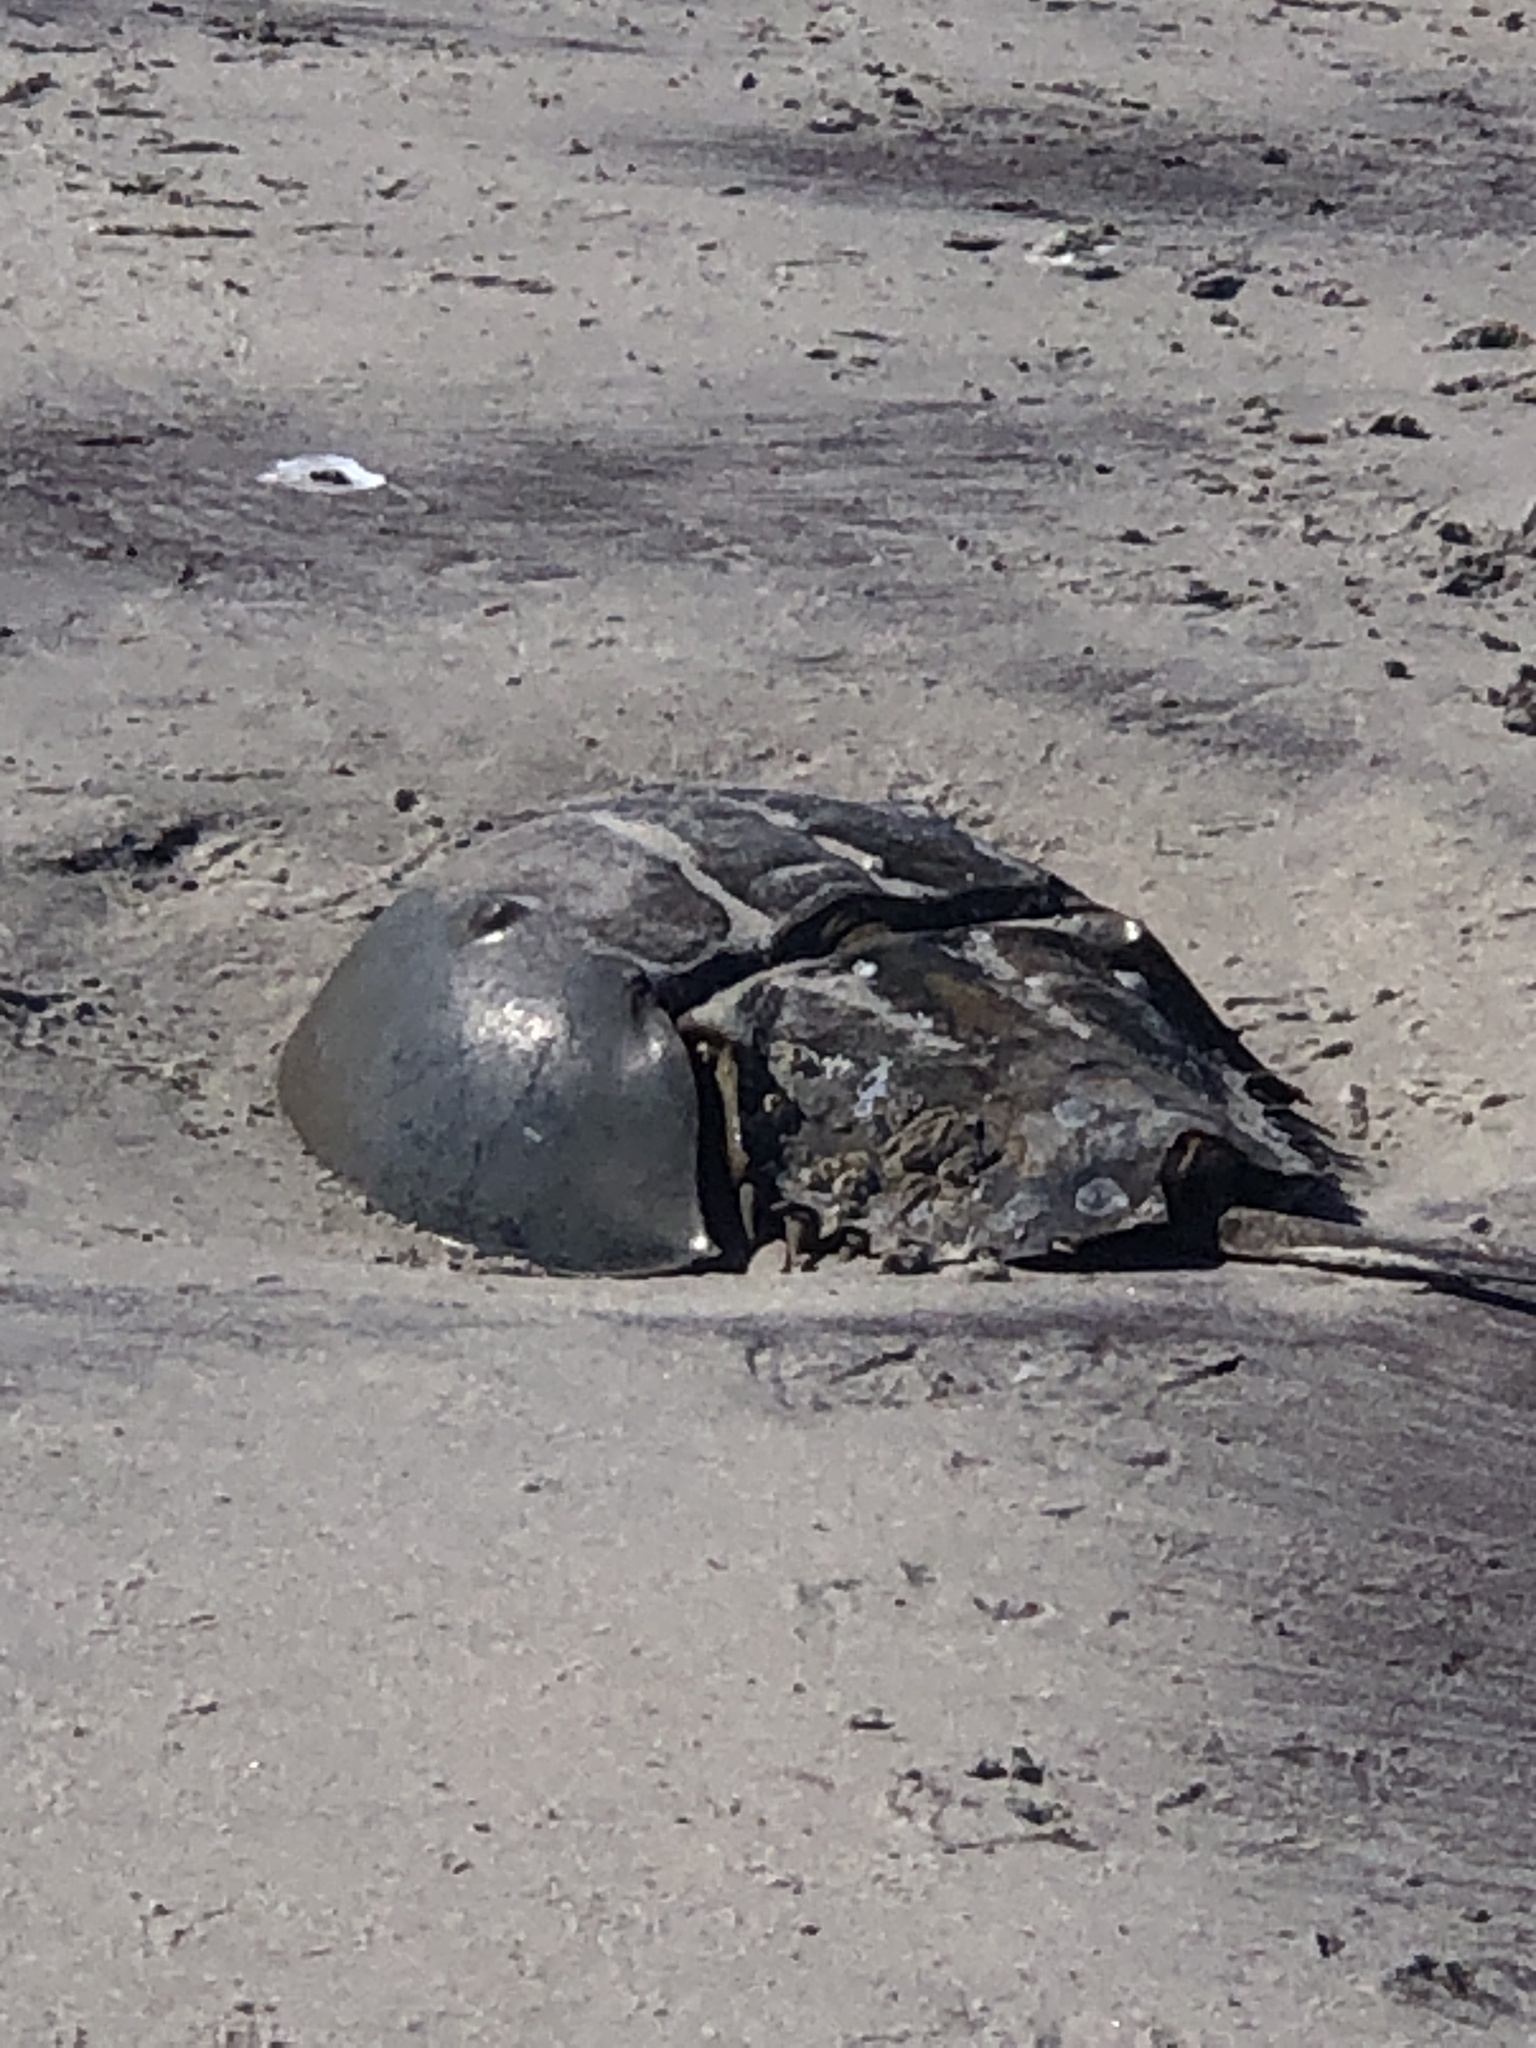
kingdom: Animalia
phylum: Arthropoda
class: Merostomata
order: Xiphosurida
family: Limulidae
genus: Limulus
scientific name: Limulus polyphemus
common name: Horseshoe crab
